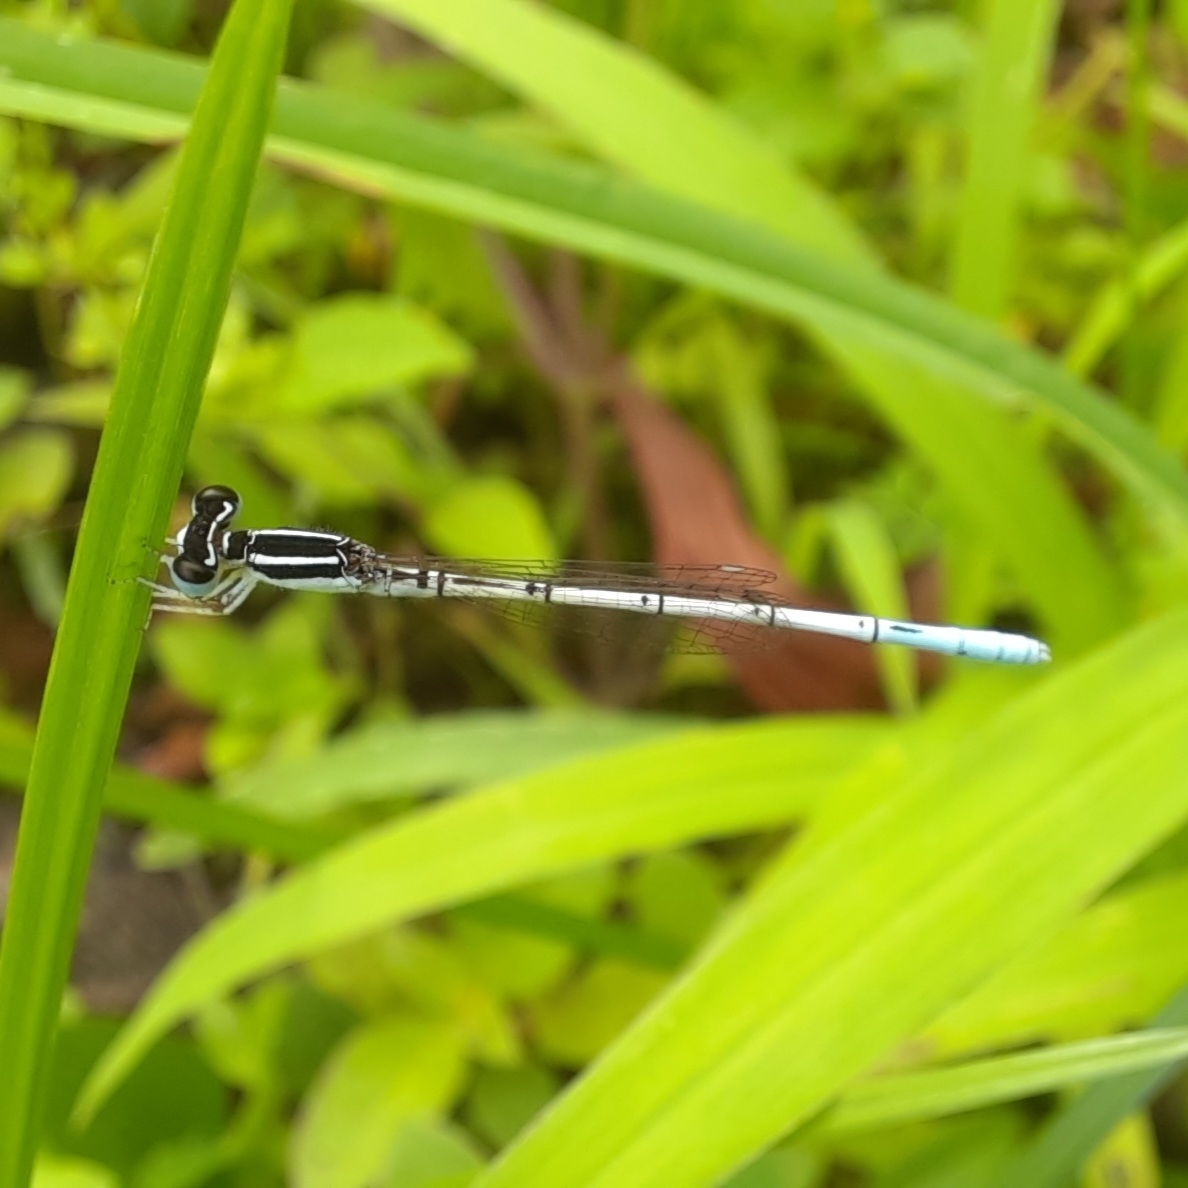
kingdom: Animalia
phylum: Arthropoda
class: Insecta
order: Odonata
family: Coenagrionidae
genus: Agriocnemis
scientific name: Agriocnemis pieris
